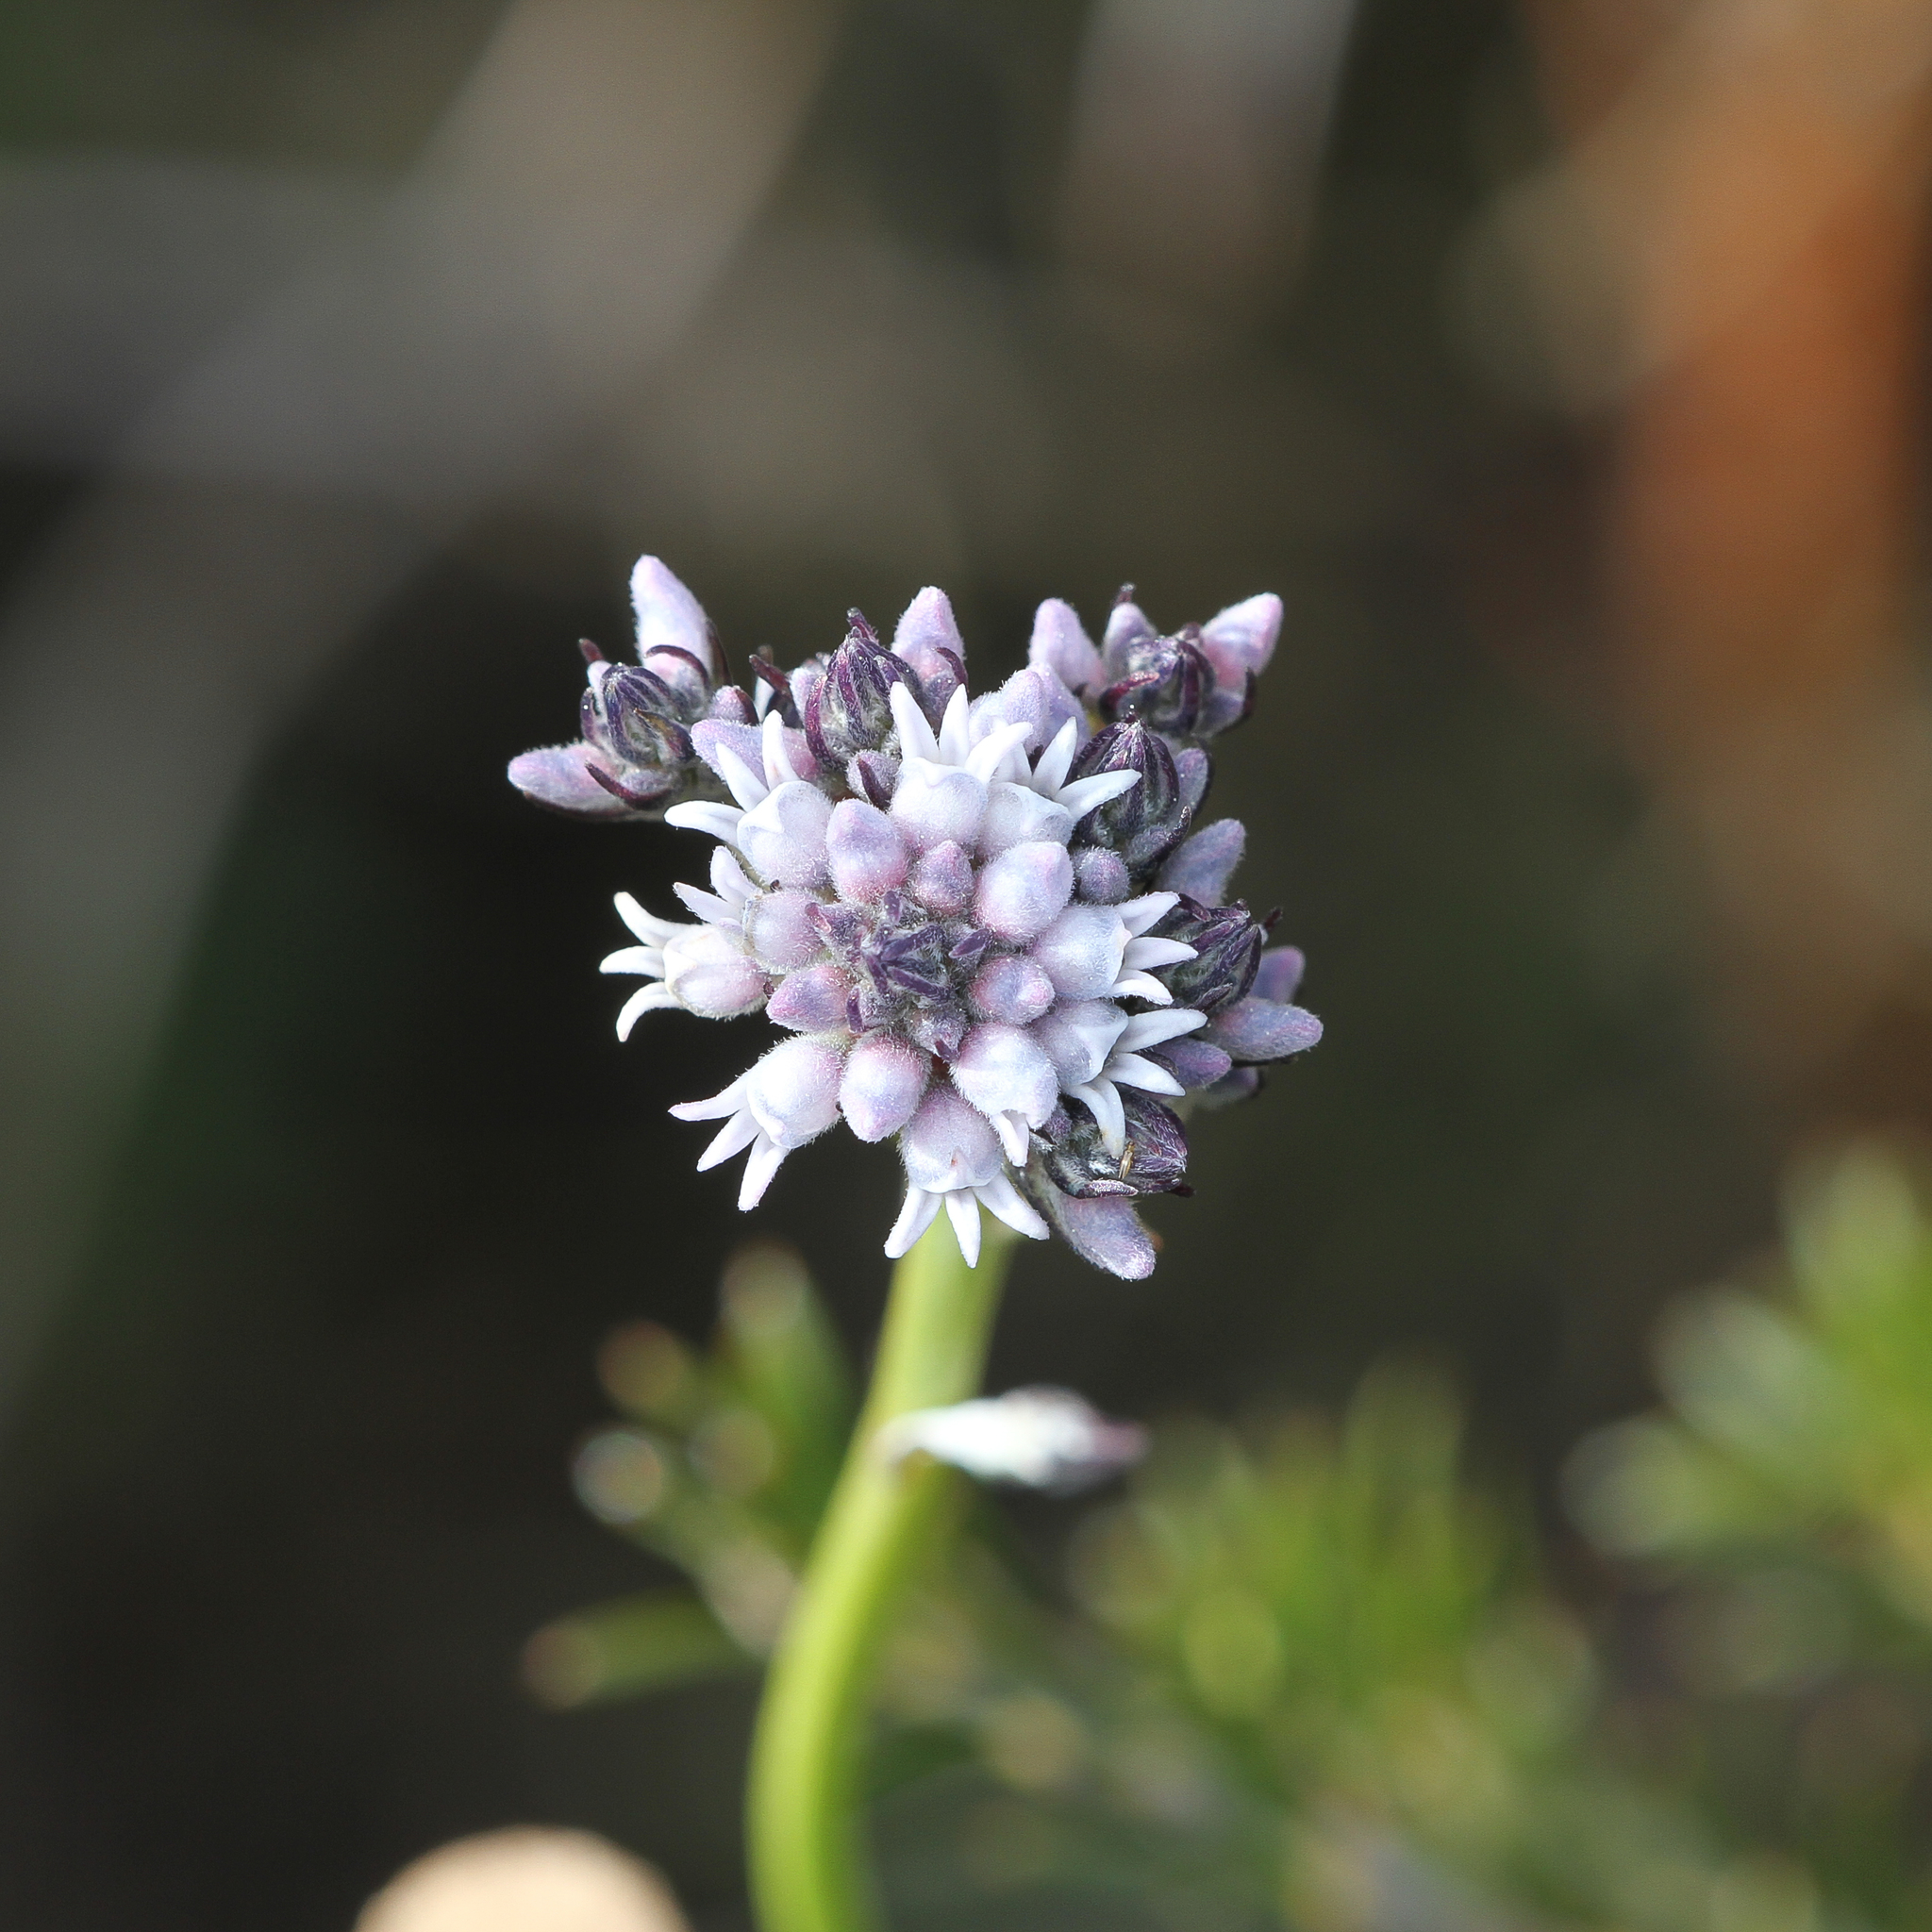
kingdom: Plantae
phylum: Tracheophyta
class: Magnoliopsida
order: Proteales
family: Proteaceae
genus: Conospermum
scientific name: Conospermum patens
